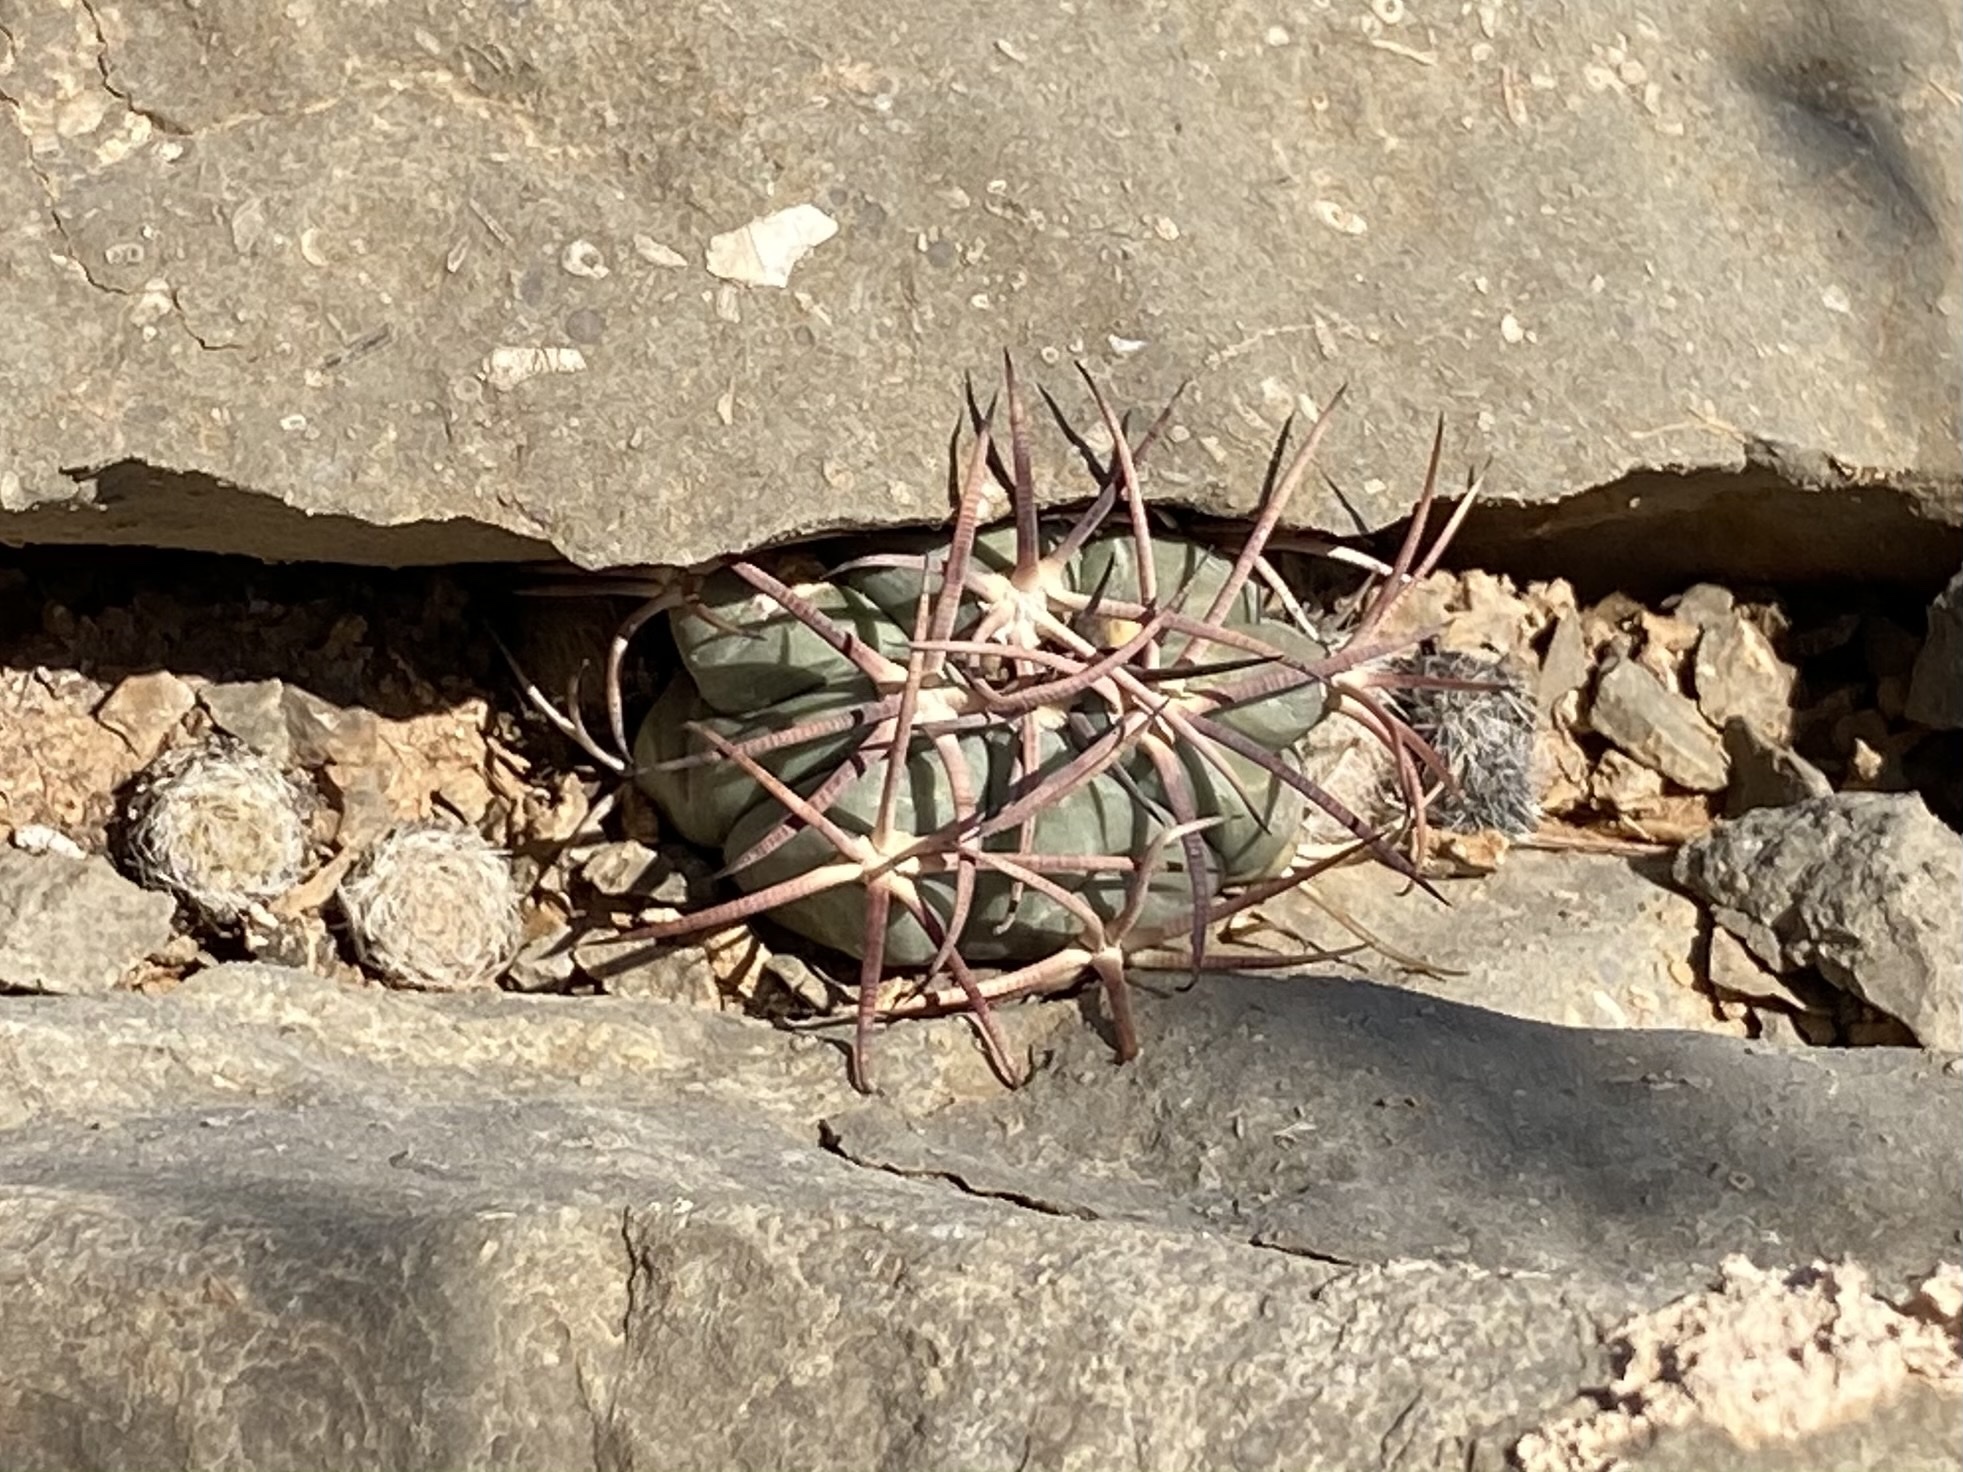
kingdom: Plantae
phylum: Tracheophyta
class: Magnoliopsida
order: Caryophyllales
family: Cactaceae
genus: Echinocactus
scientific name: Echinocactus horizonthalonius
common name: Devilshead
